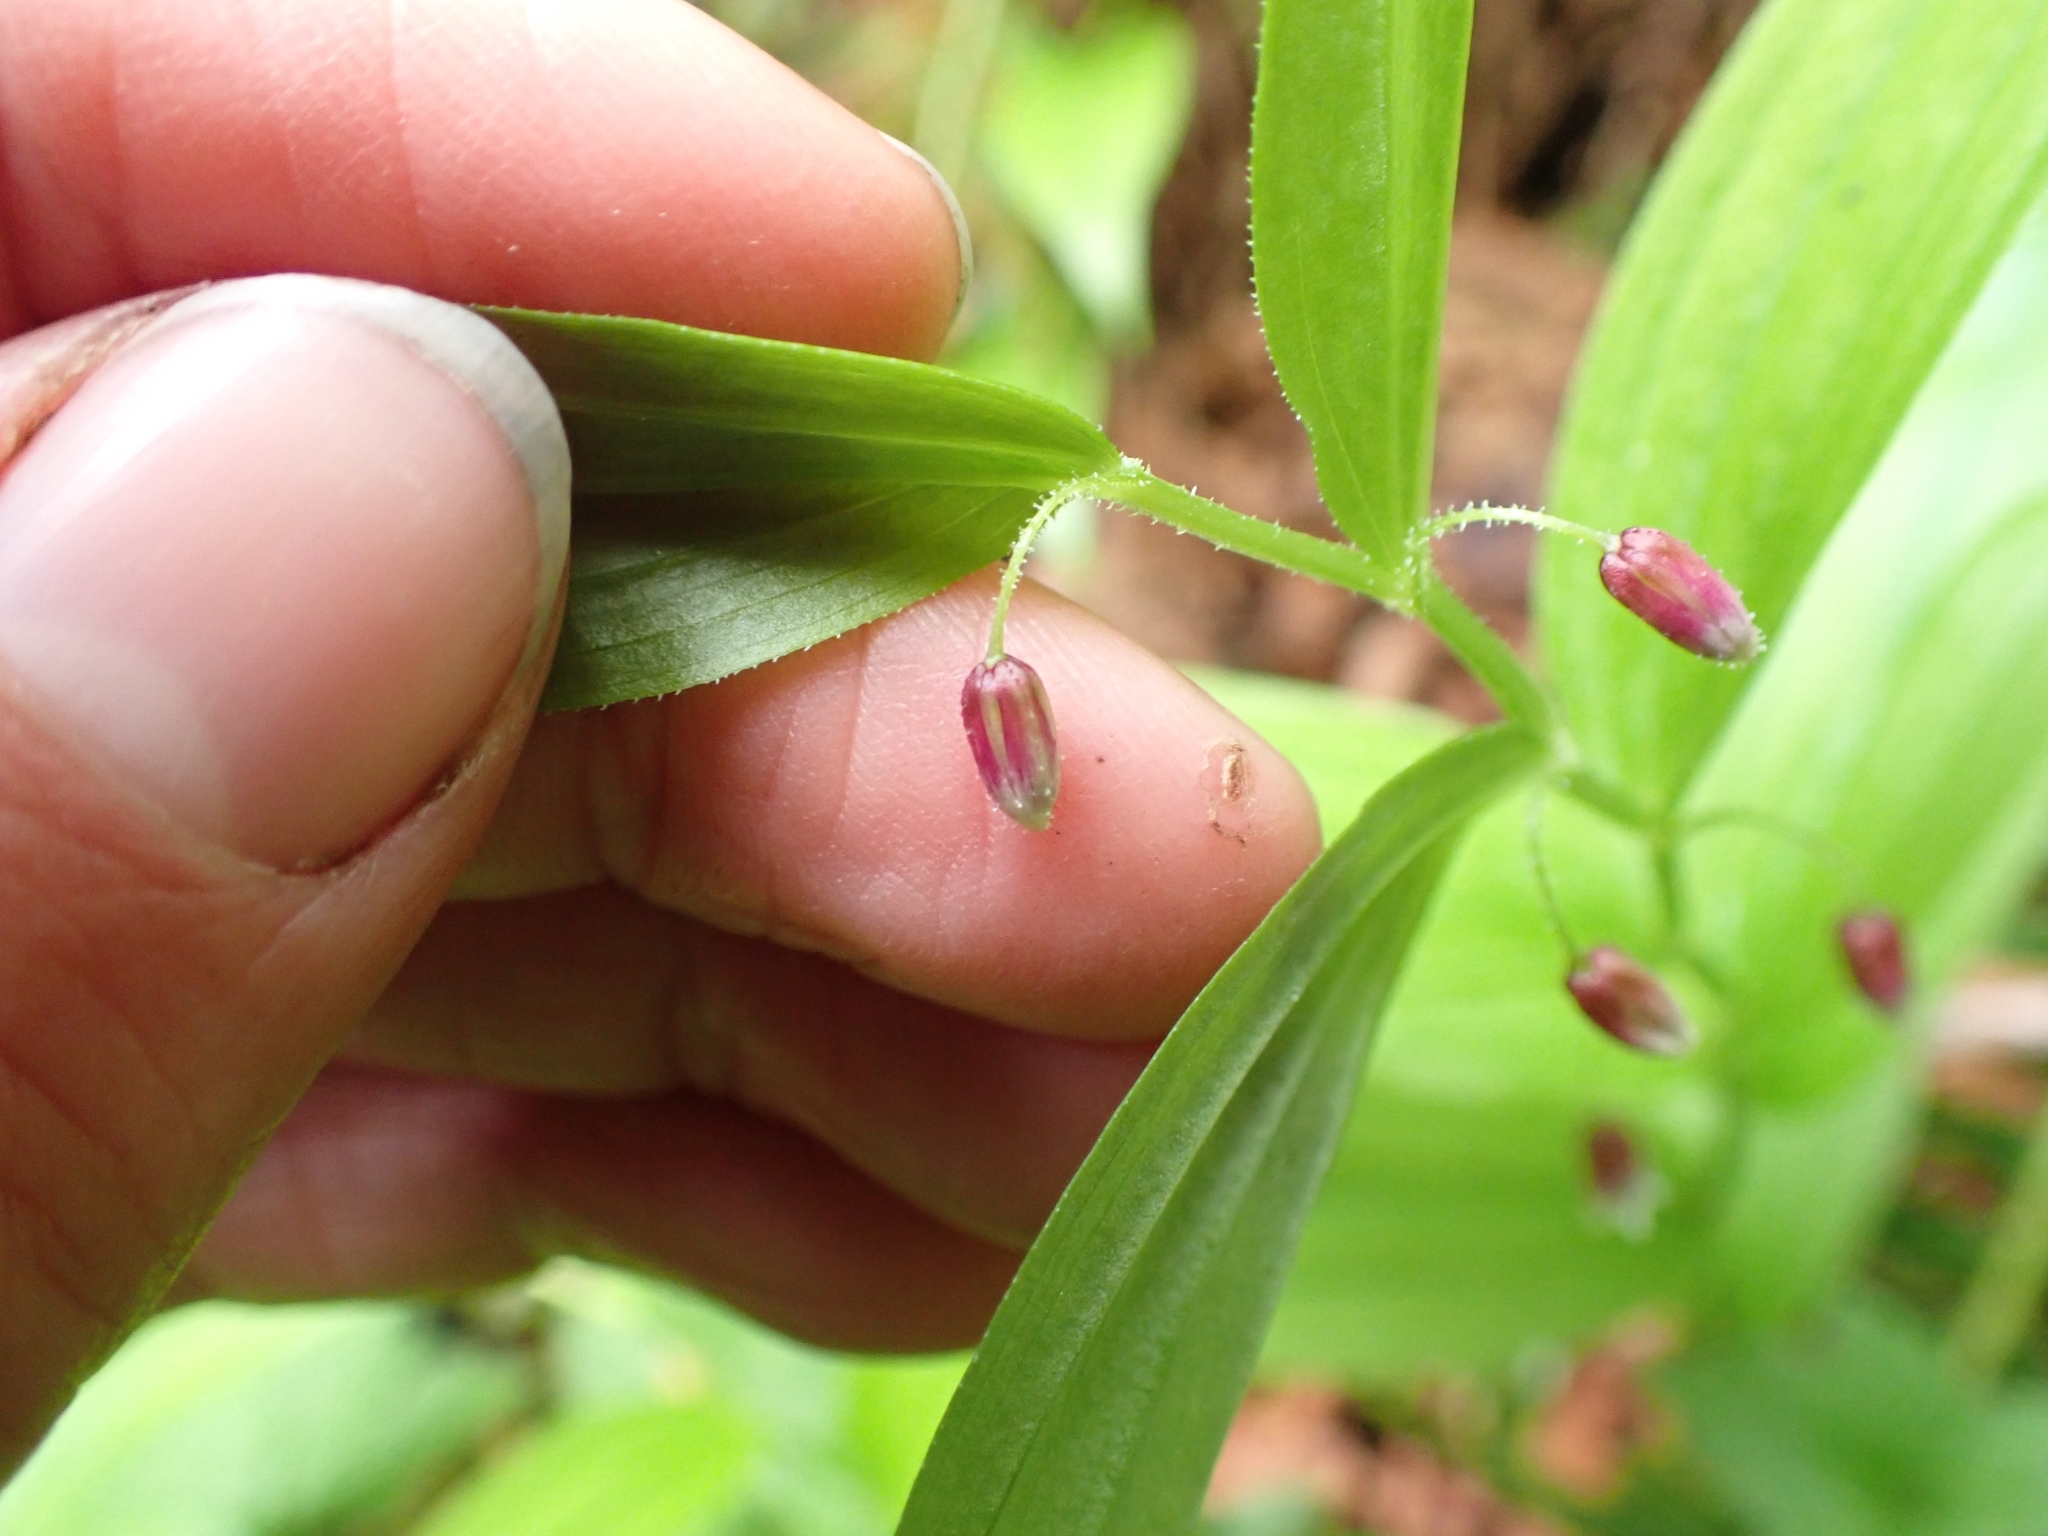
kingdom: Plantae
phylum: Tracheophyta
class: Liliopsida
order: Liliales
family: Liliaceae
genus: Streptopus
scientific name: Streptopus lanceolatus
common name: Rose mandarin
